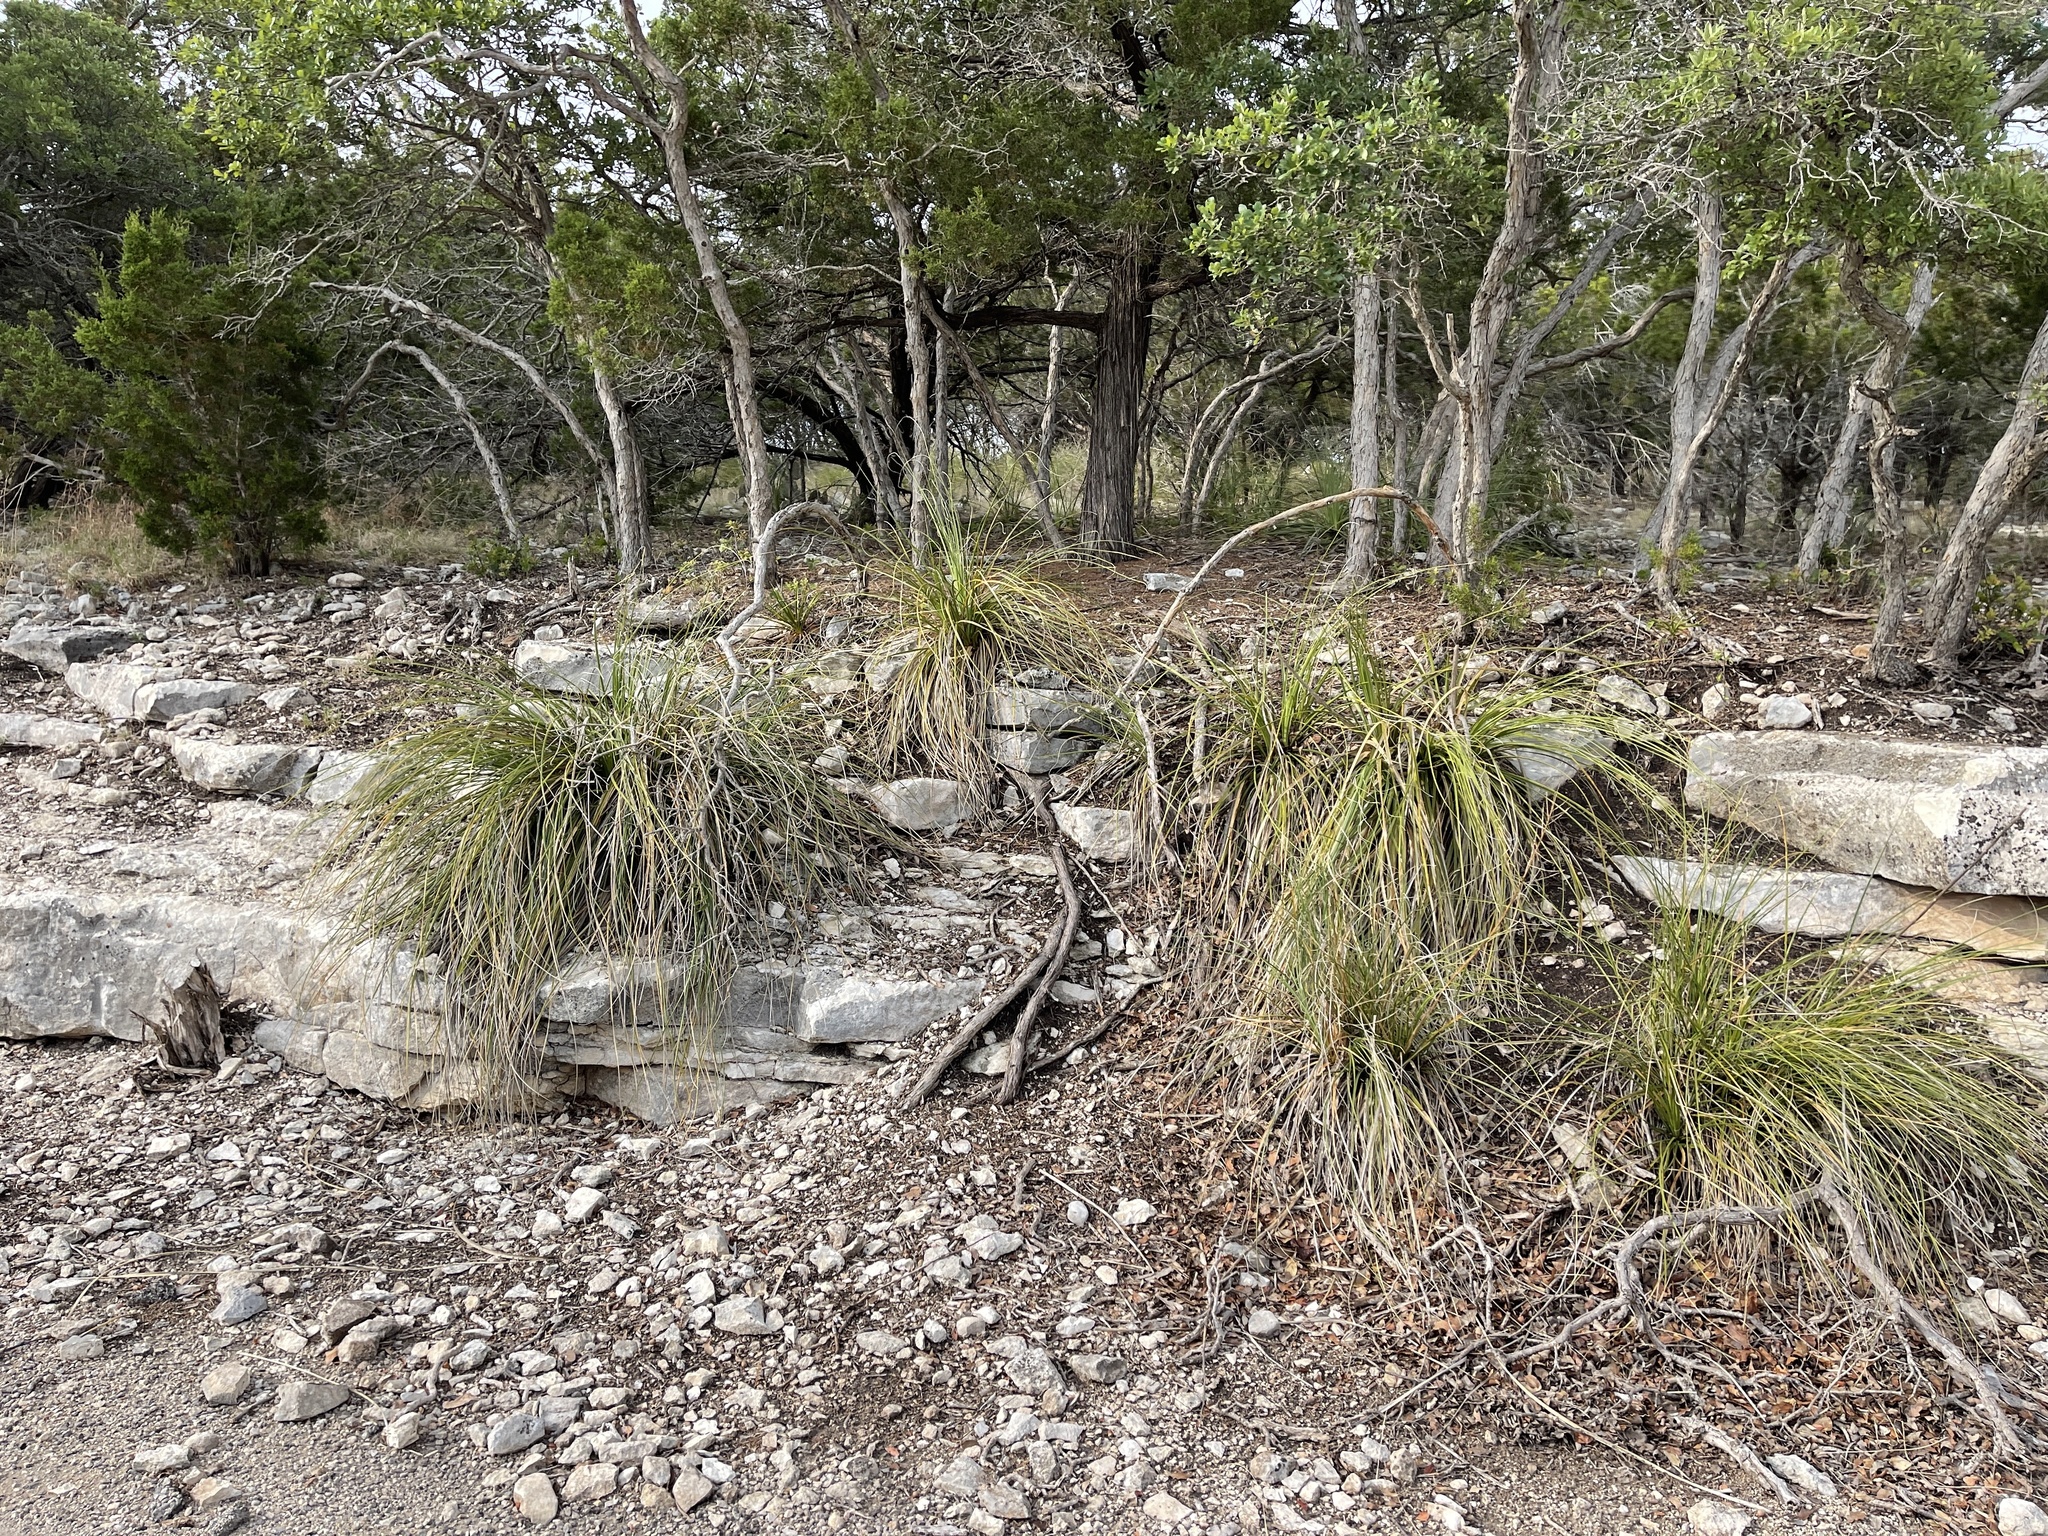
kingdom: Plantae
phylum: Tracheophyta
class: Liliopsida
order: Asparagales
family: Asparagaceae
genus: Nolina
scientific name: Nolina texana
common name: Texas sacahuiste
